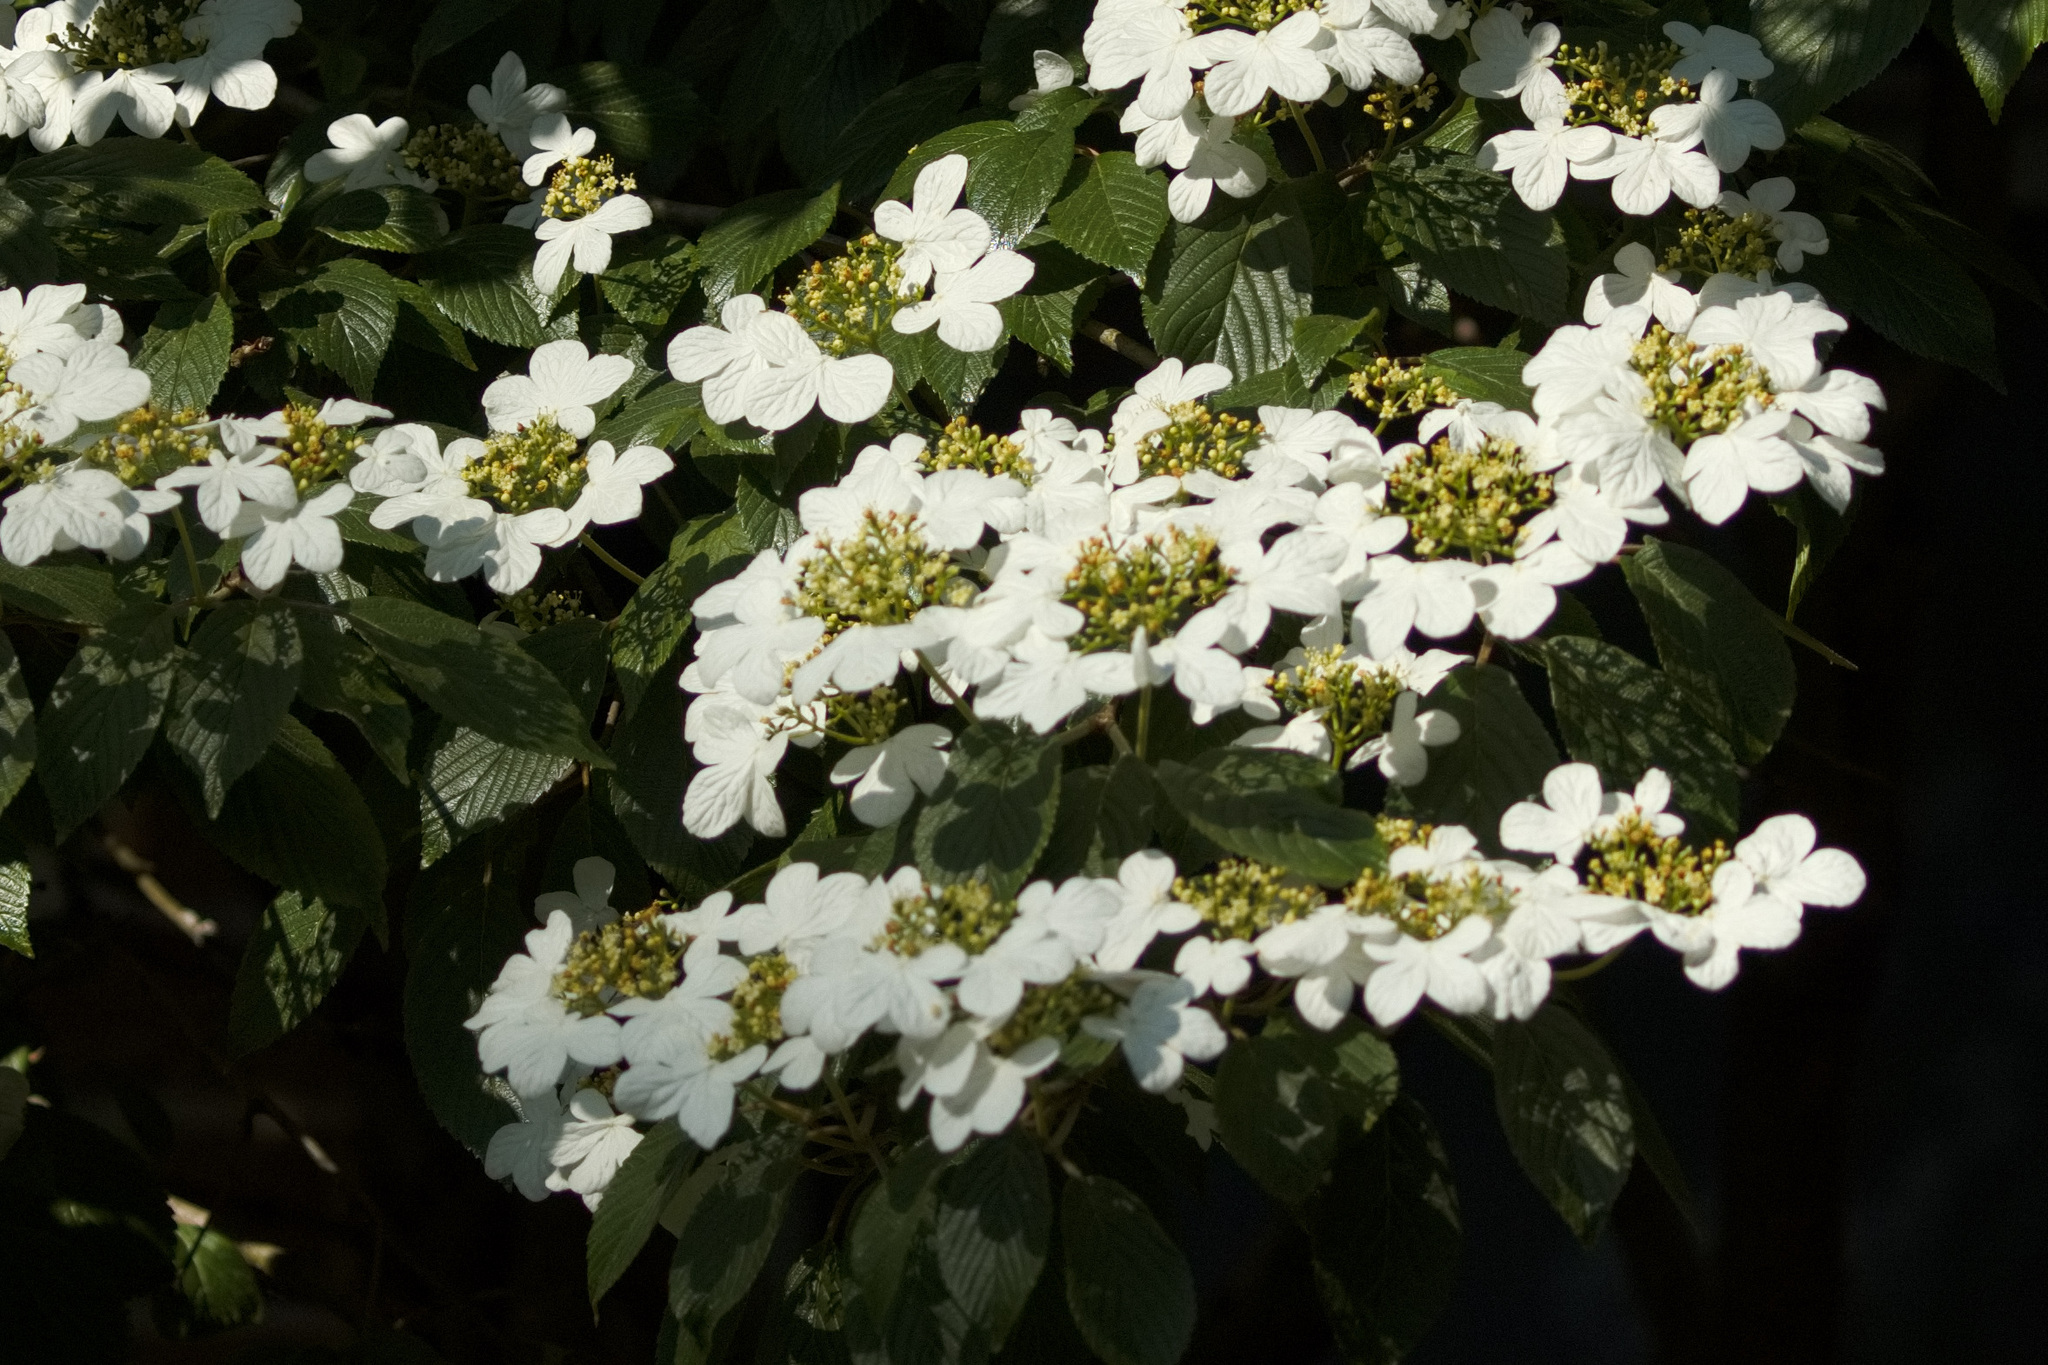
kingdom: Plantae
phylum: Tracheophyta
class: Magnoliopsida
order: Dipsacales
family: Viburnaceae
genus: Viburnum
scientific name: Viburnum plicatum
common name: Japanese snowball
